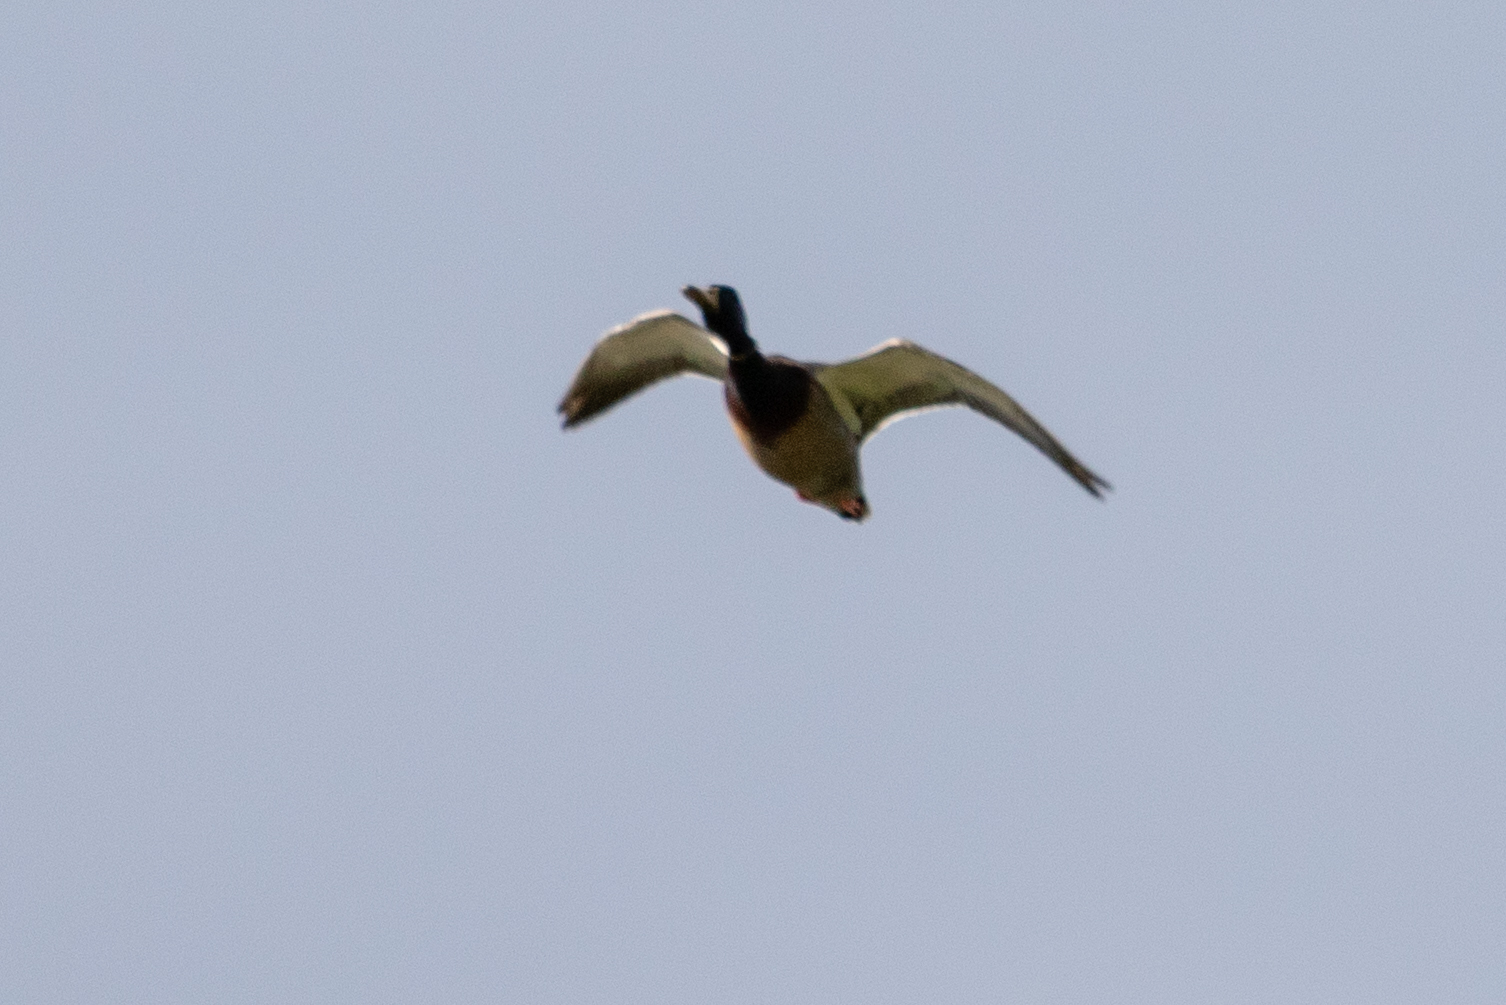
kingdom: Animalia
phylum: Chordata
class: Aves
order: Anseriformes
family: Anatidae
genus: Anas
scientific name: Anas platyrhynchos
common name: Mallard
